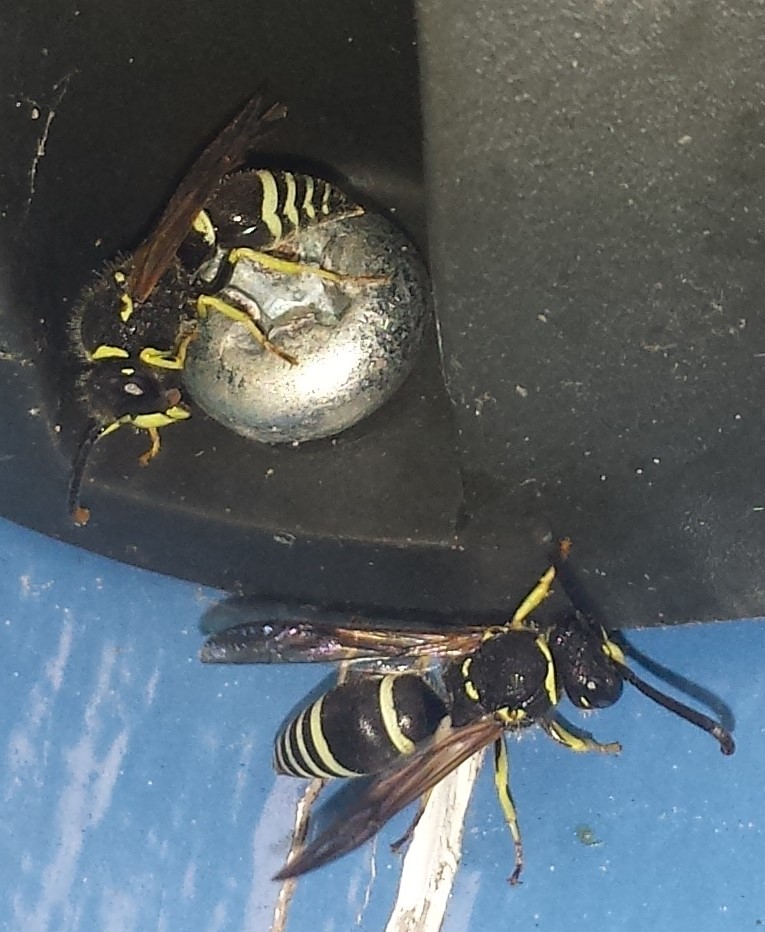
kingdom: Animalia
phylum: Arthropoda
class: Insecta
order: Hymenoptera
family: Vespidae
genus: Ancistrocerus
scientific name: Ancistrocerus
